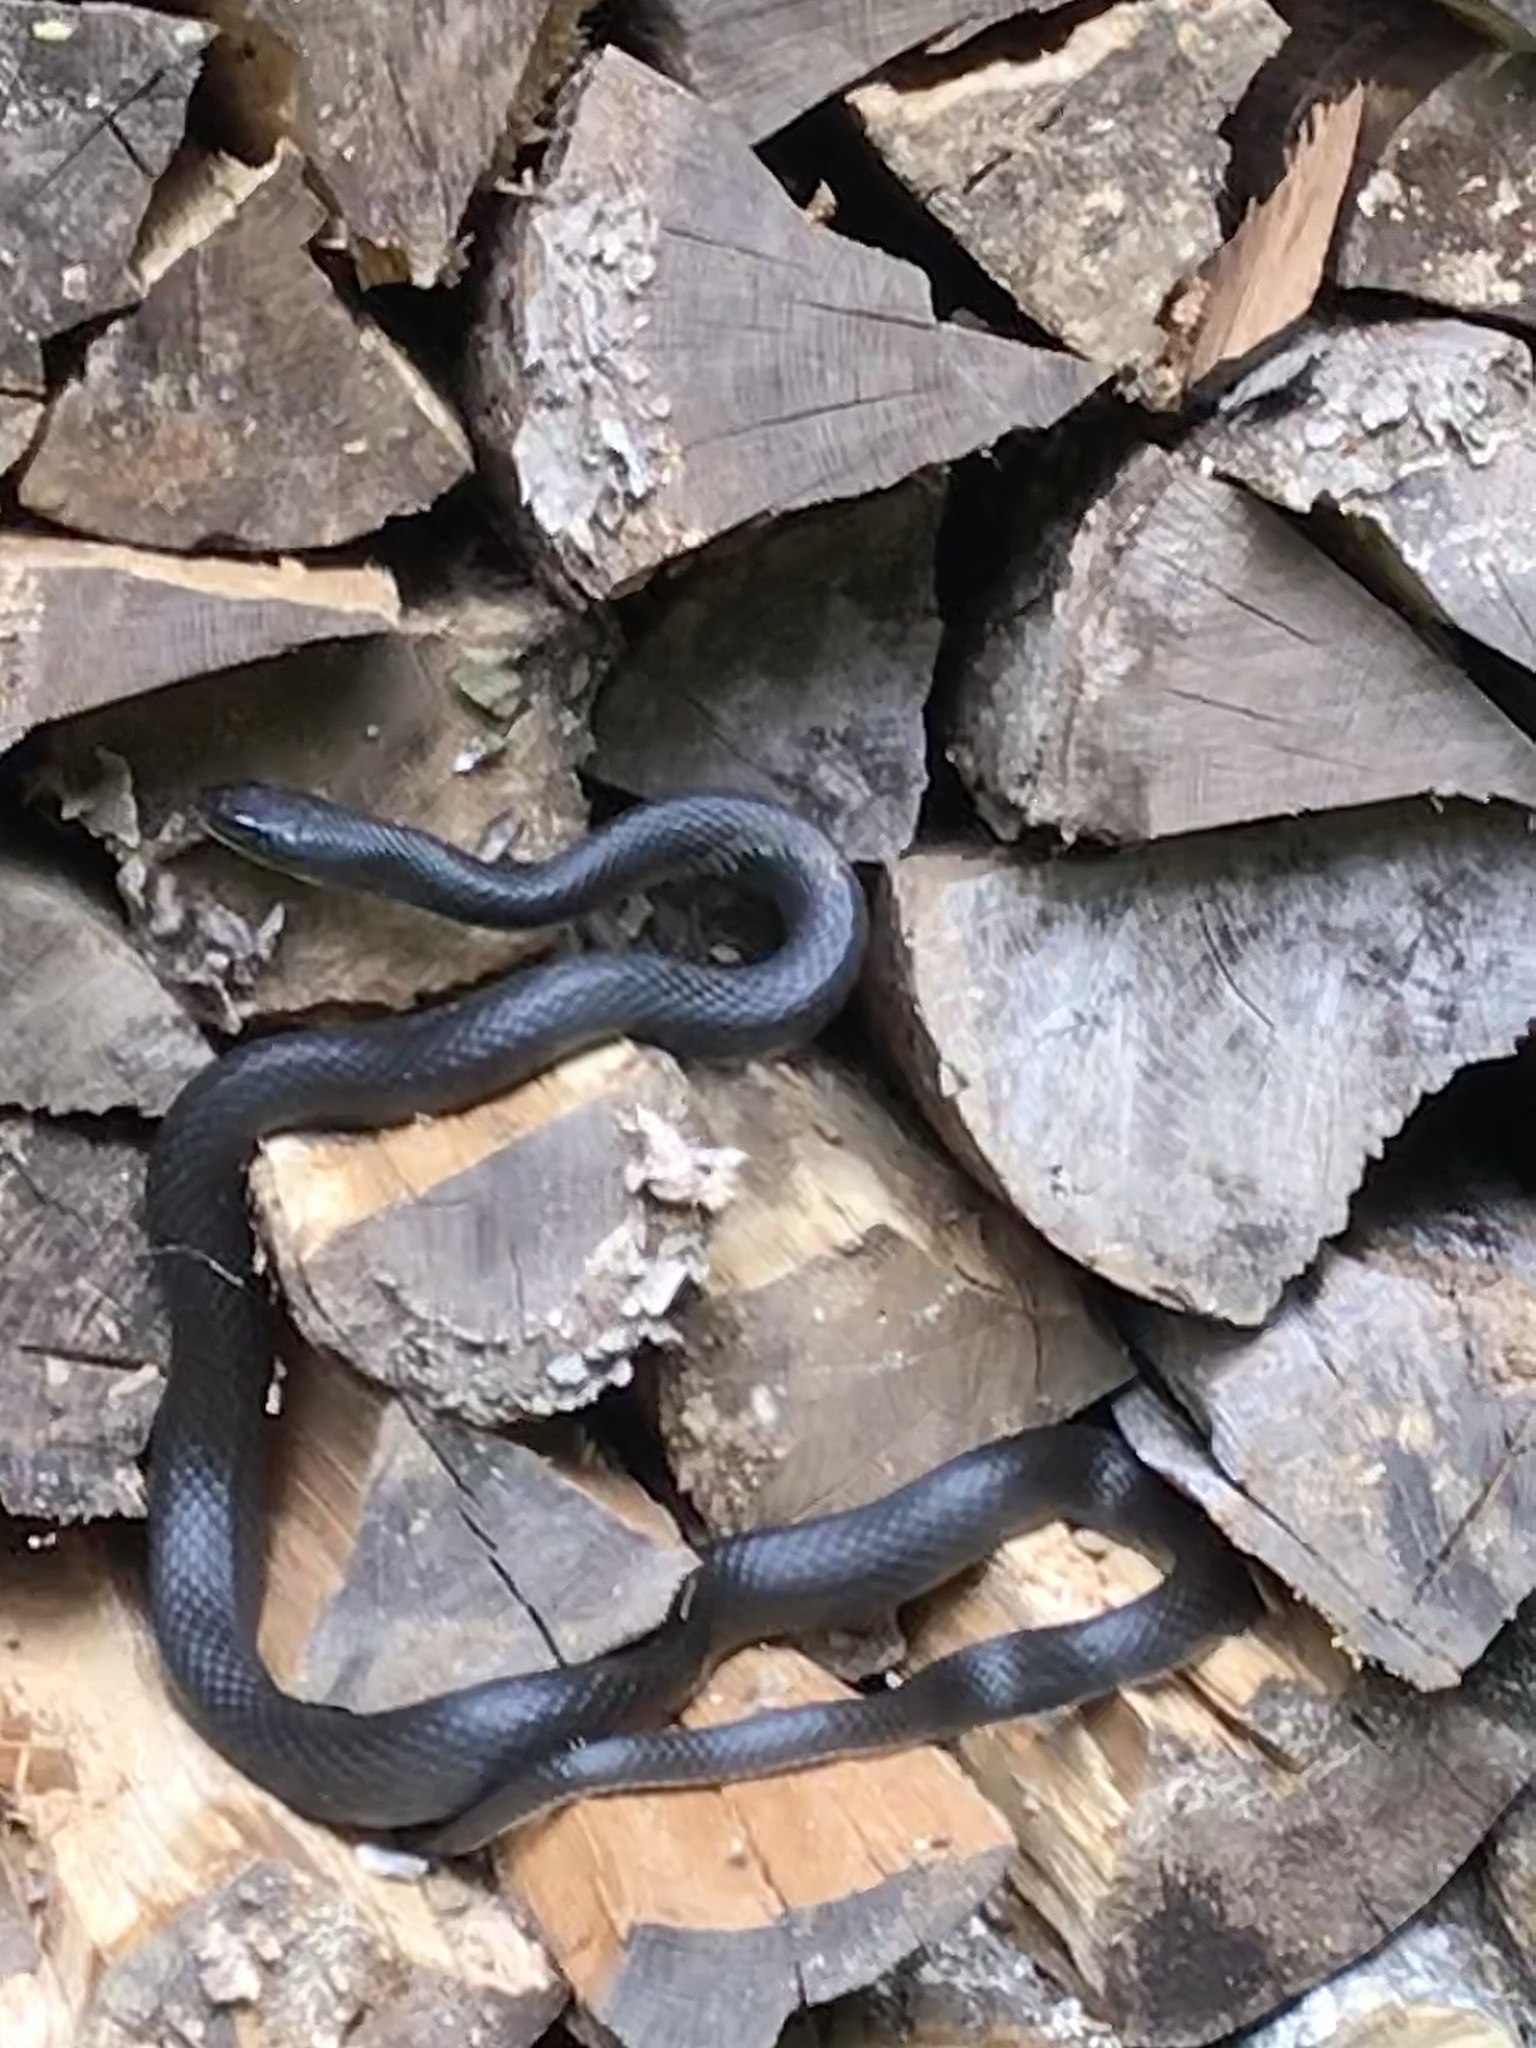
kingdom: Animalia
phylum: Chordata
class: Squamata
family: Colubridae
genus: Coluber
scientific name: Coluber constrictor
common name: Eastern racer
